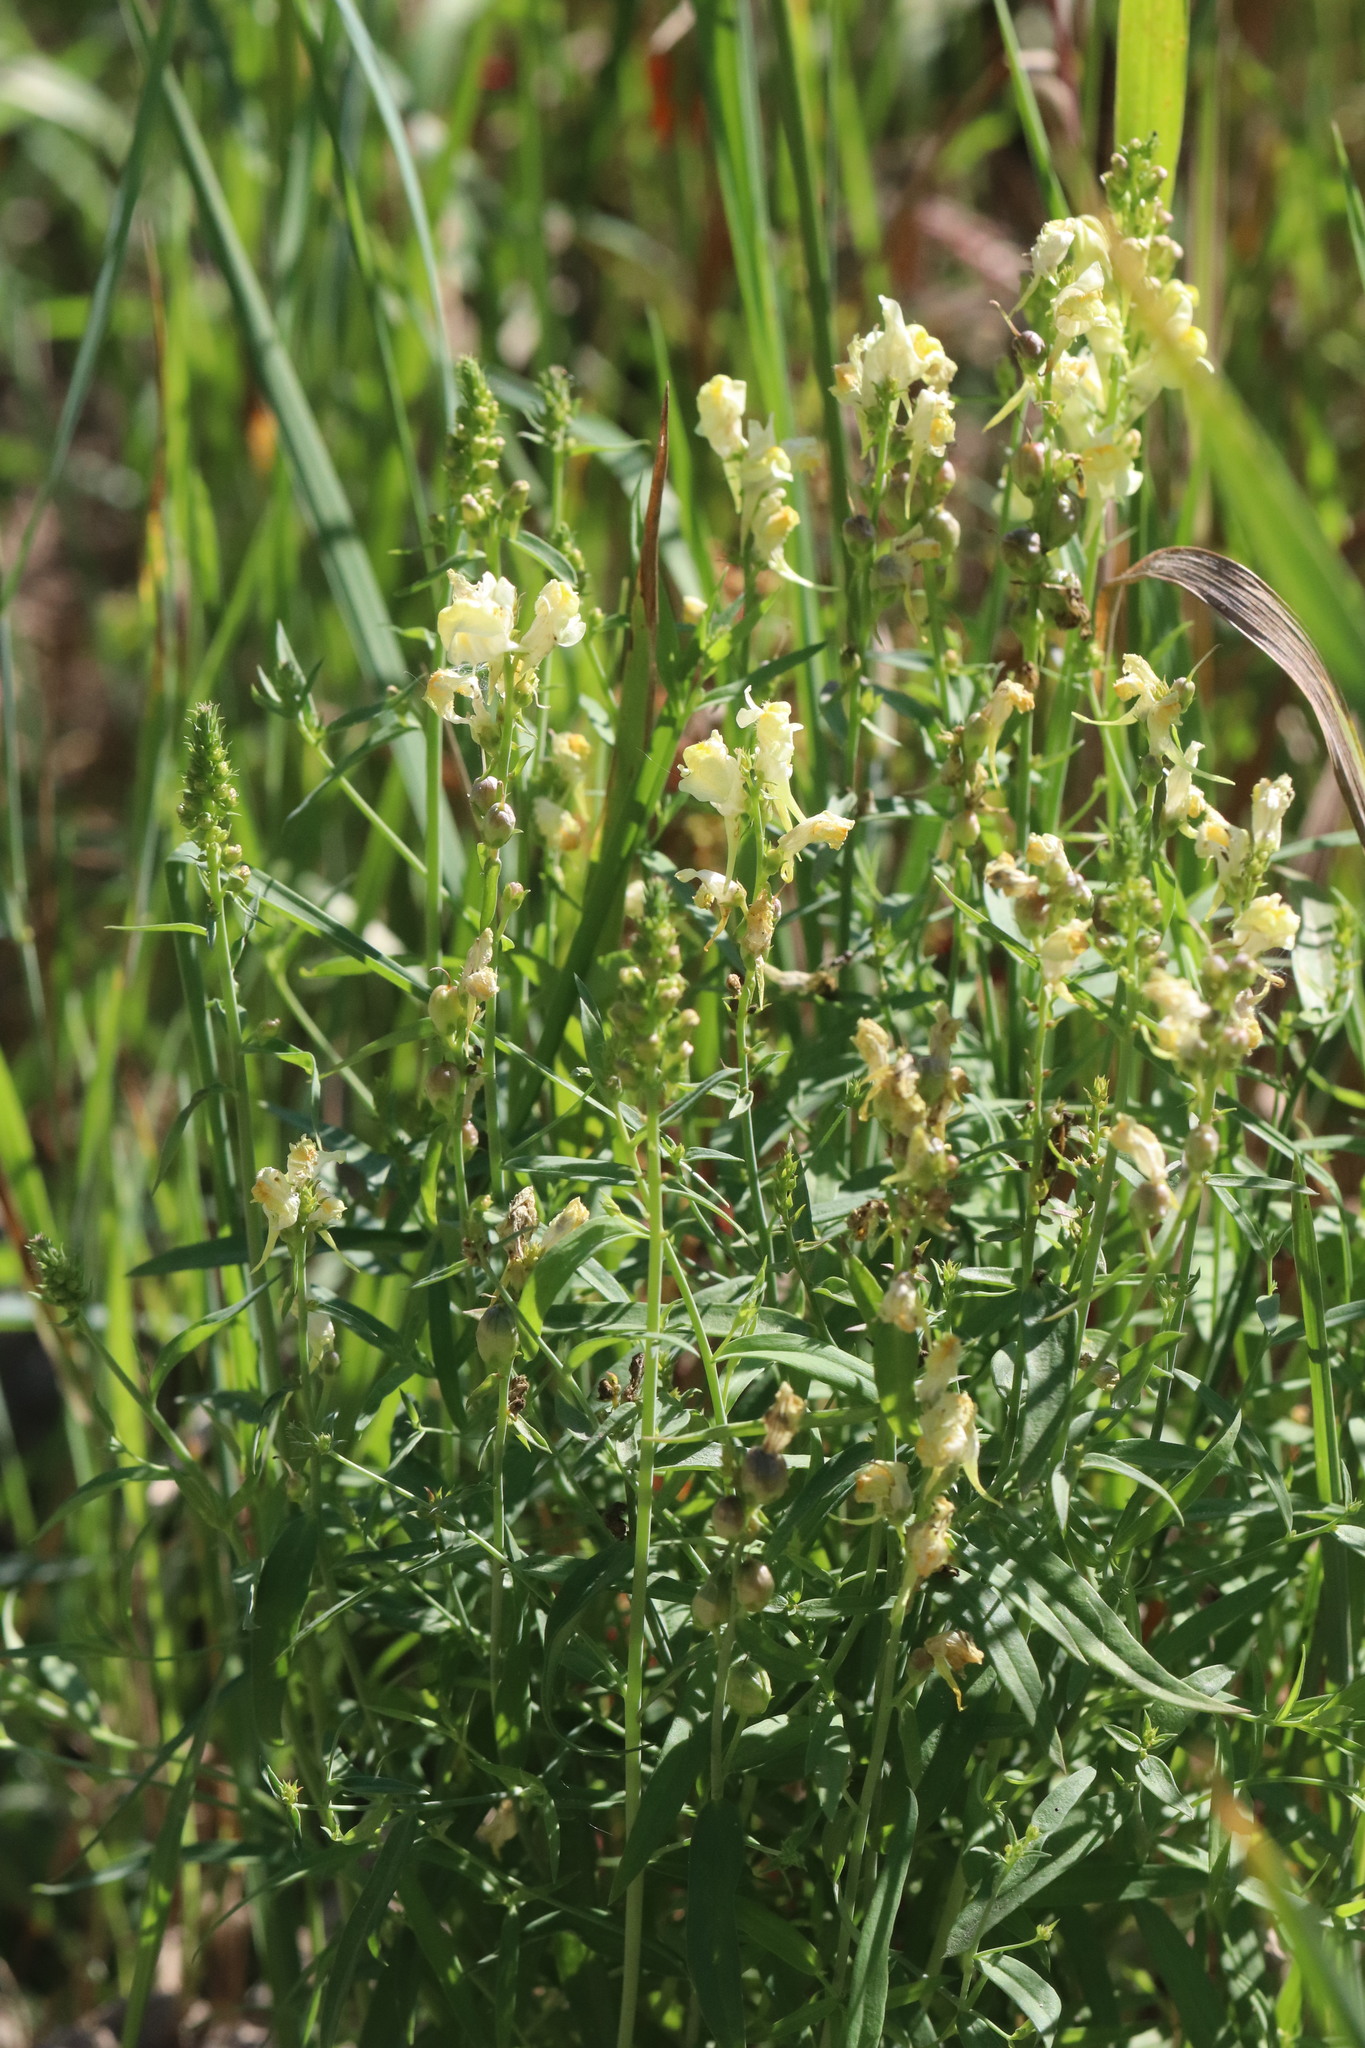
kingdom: Plantae
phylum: Tracheophyta
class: Magnoliopsida
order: Lamiales
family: Plantaginaceae
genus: Linaria
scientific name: Linaria vulgaris
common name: Butter and eggs
